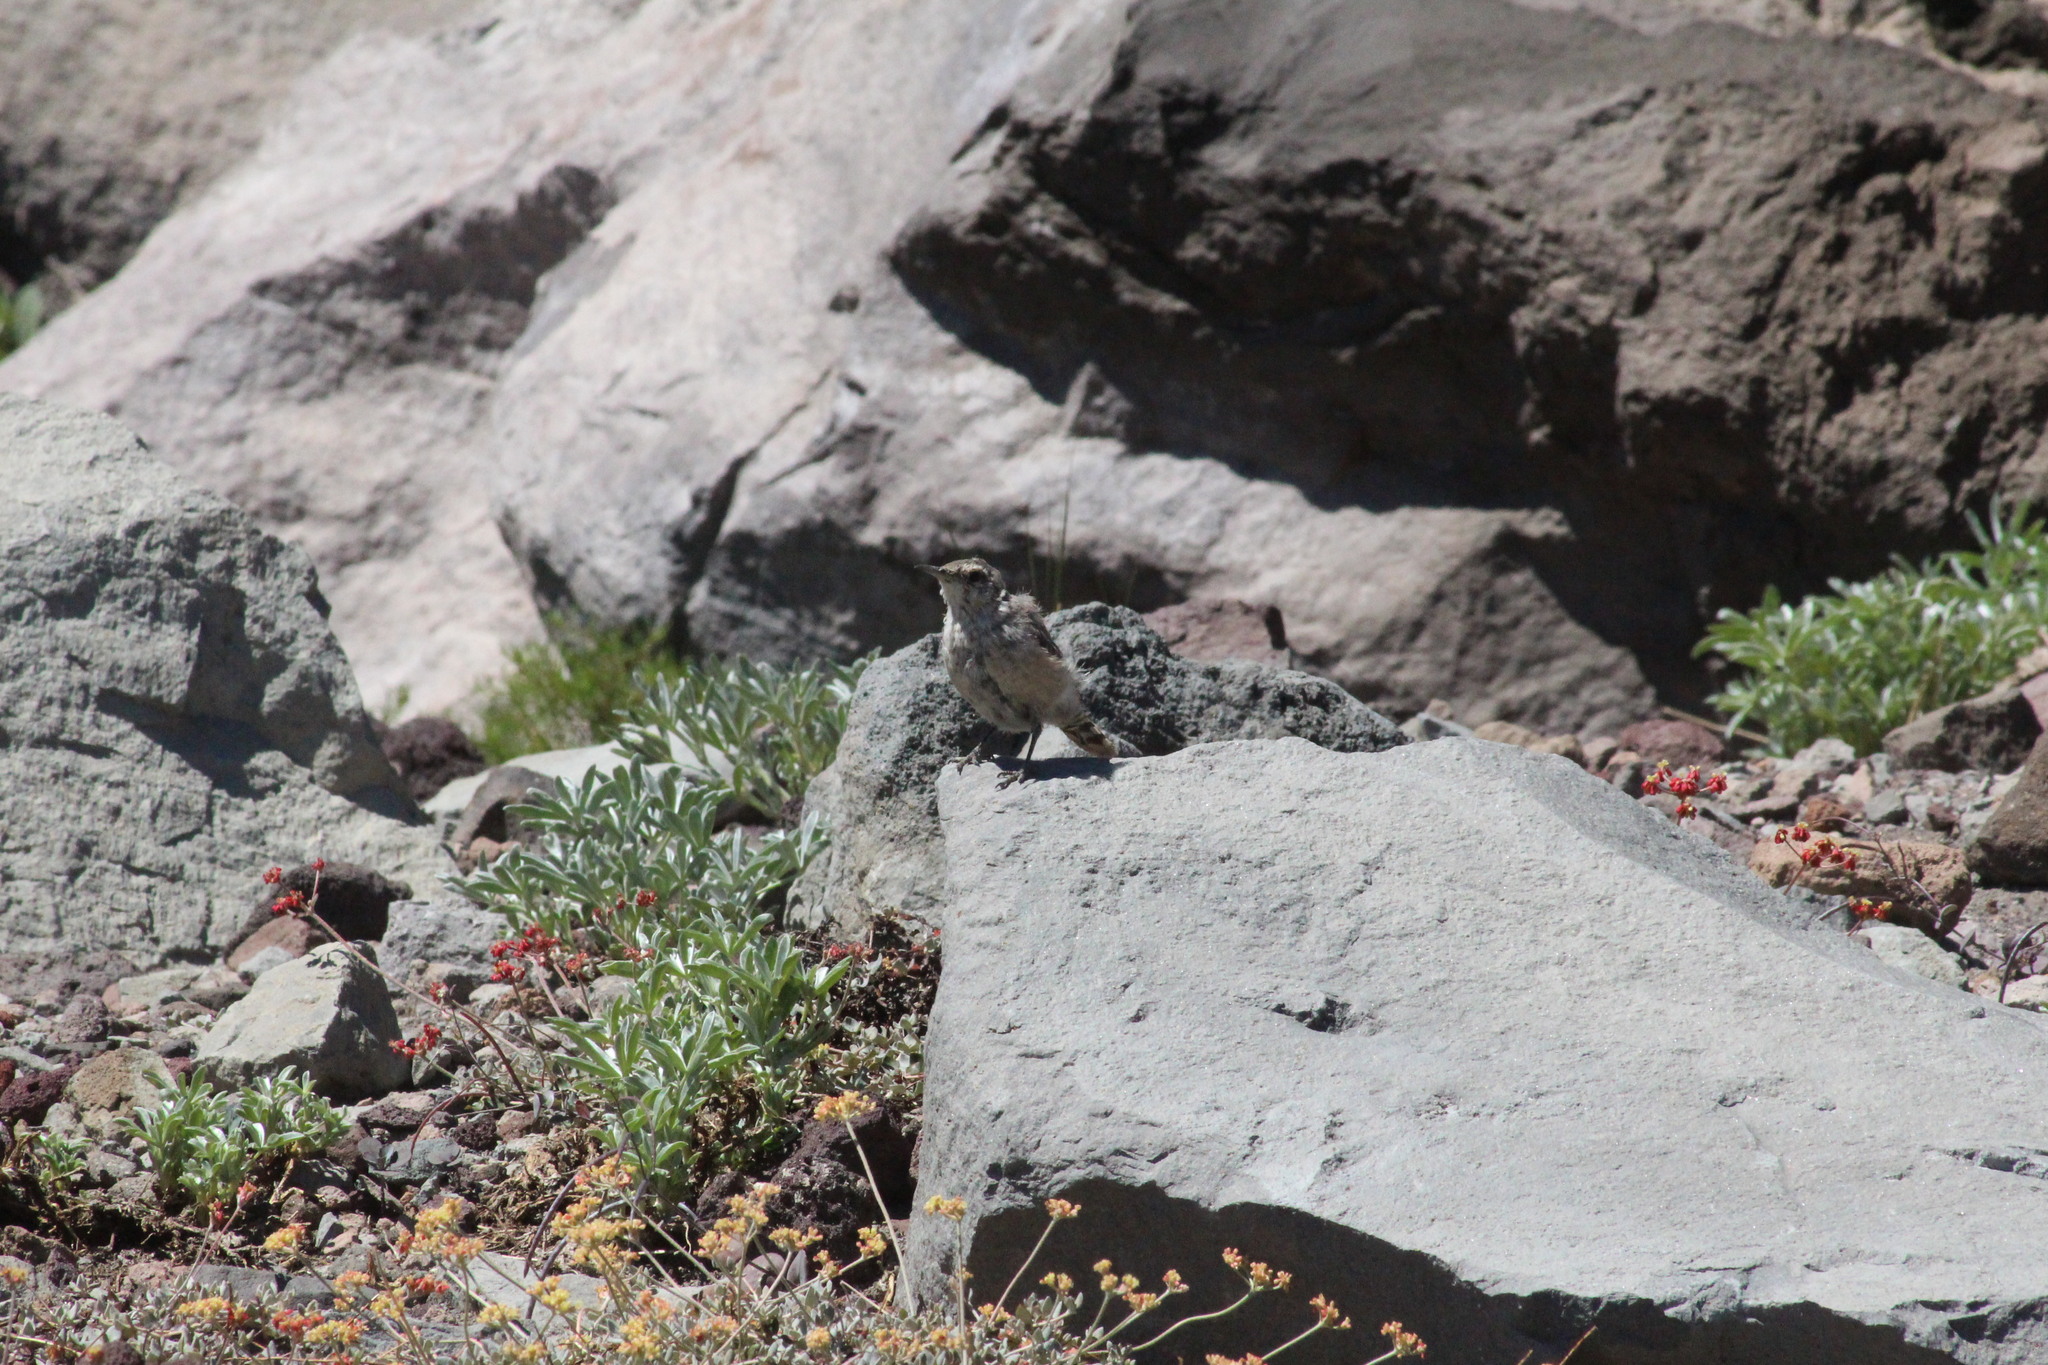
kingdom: Animalia
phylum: Chordata
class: Aves
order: Passeriformes
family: Troglodytidae
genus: Salpinctes
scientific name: Salpinctes obsoletus
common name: Rock wren
